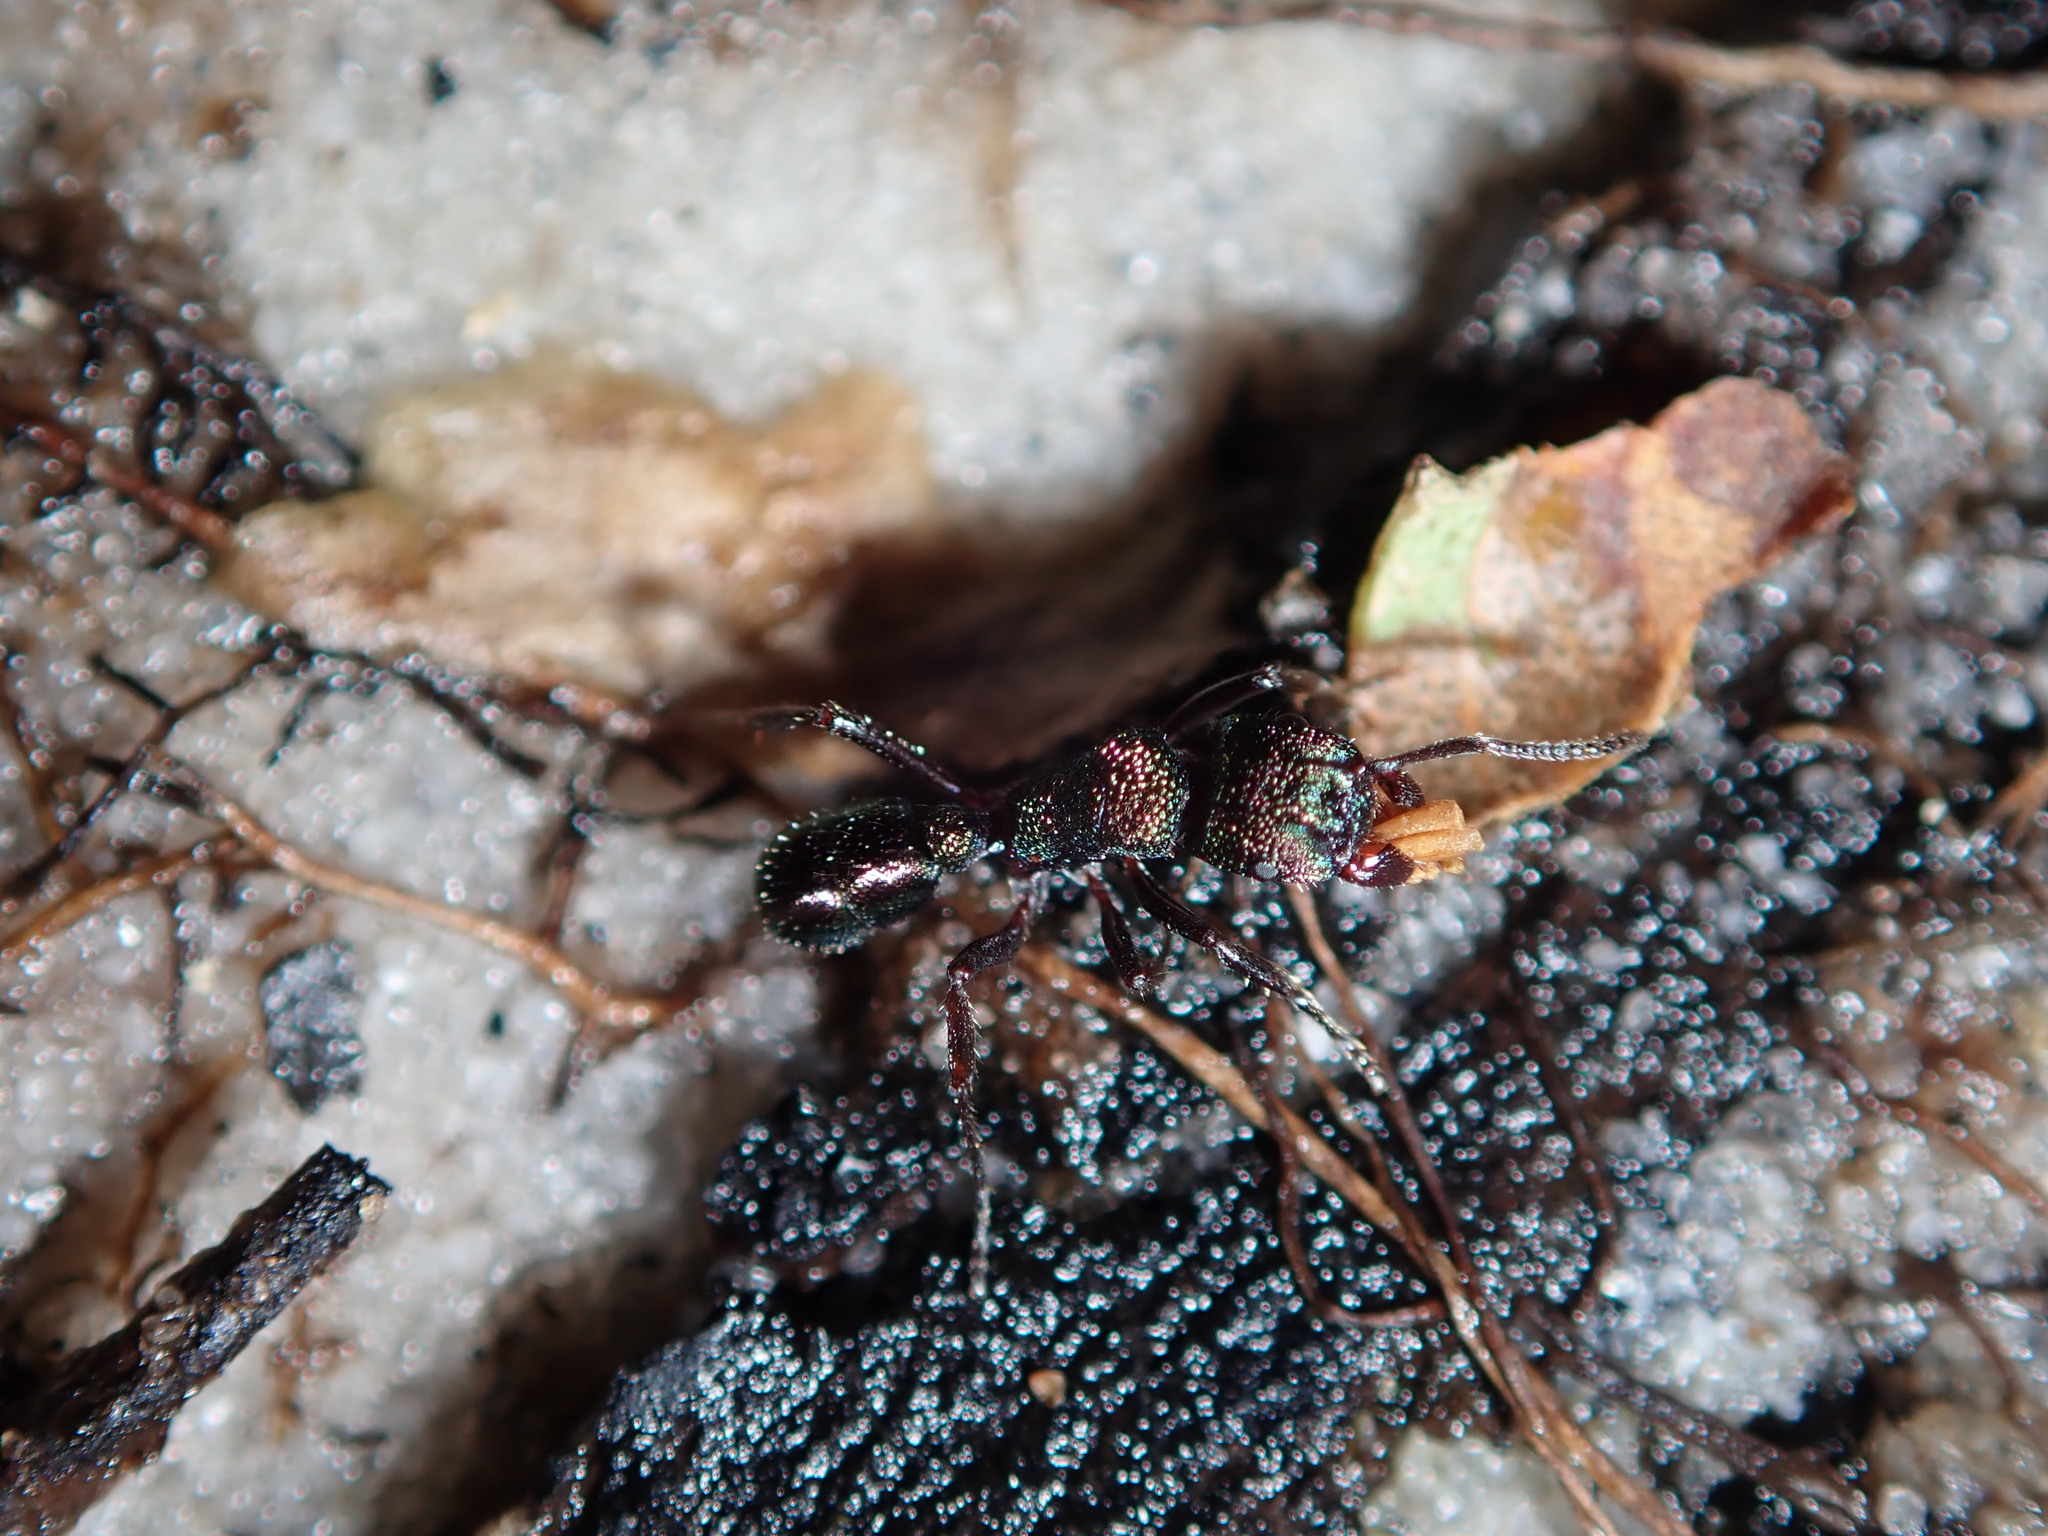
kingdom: Animalia
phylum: Arthropoda
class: Insecta
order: Hymenoptera
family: Formicidae
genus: Rhytidoponera
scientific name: Rhytidoponera metallica
